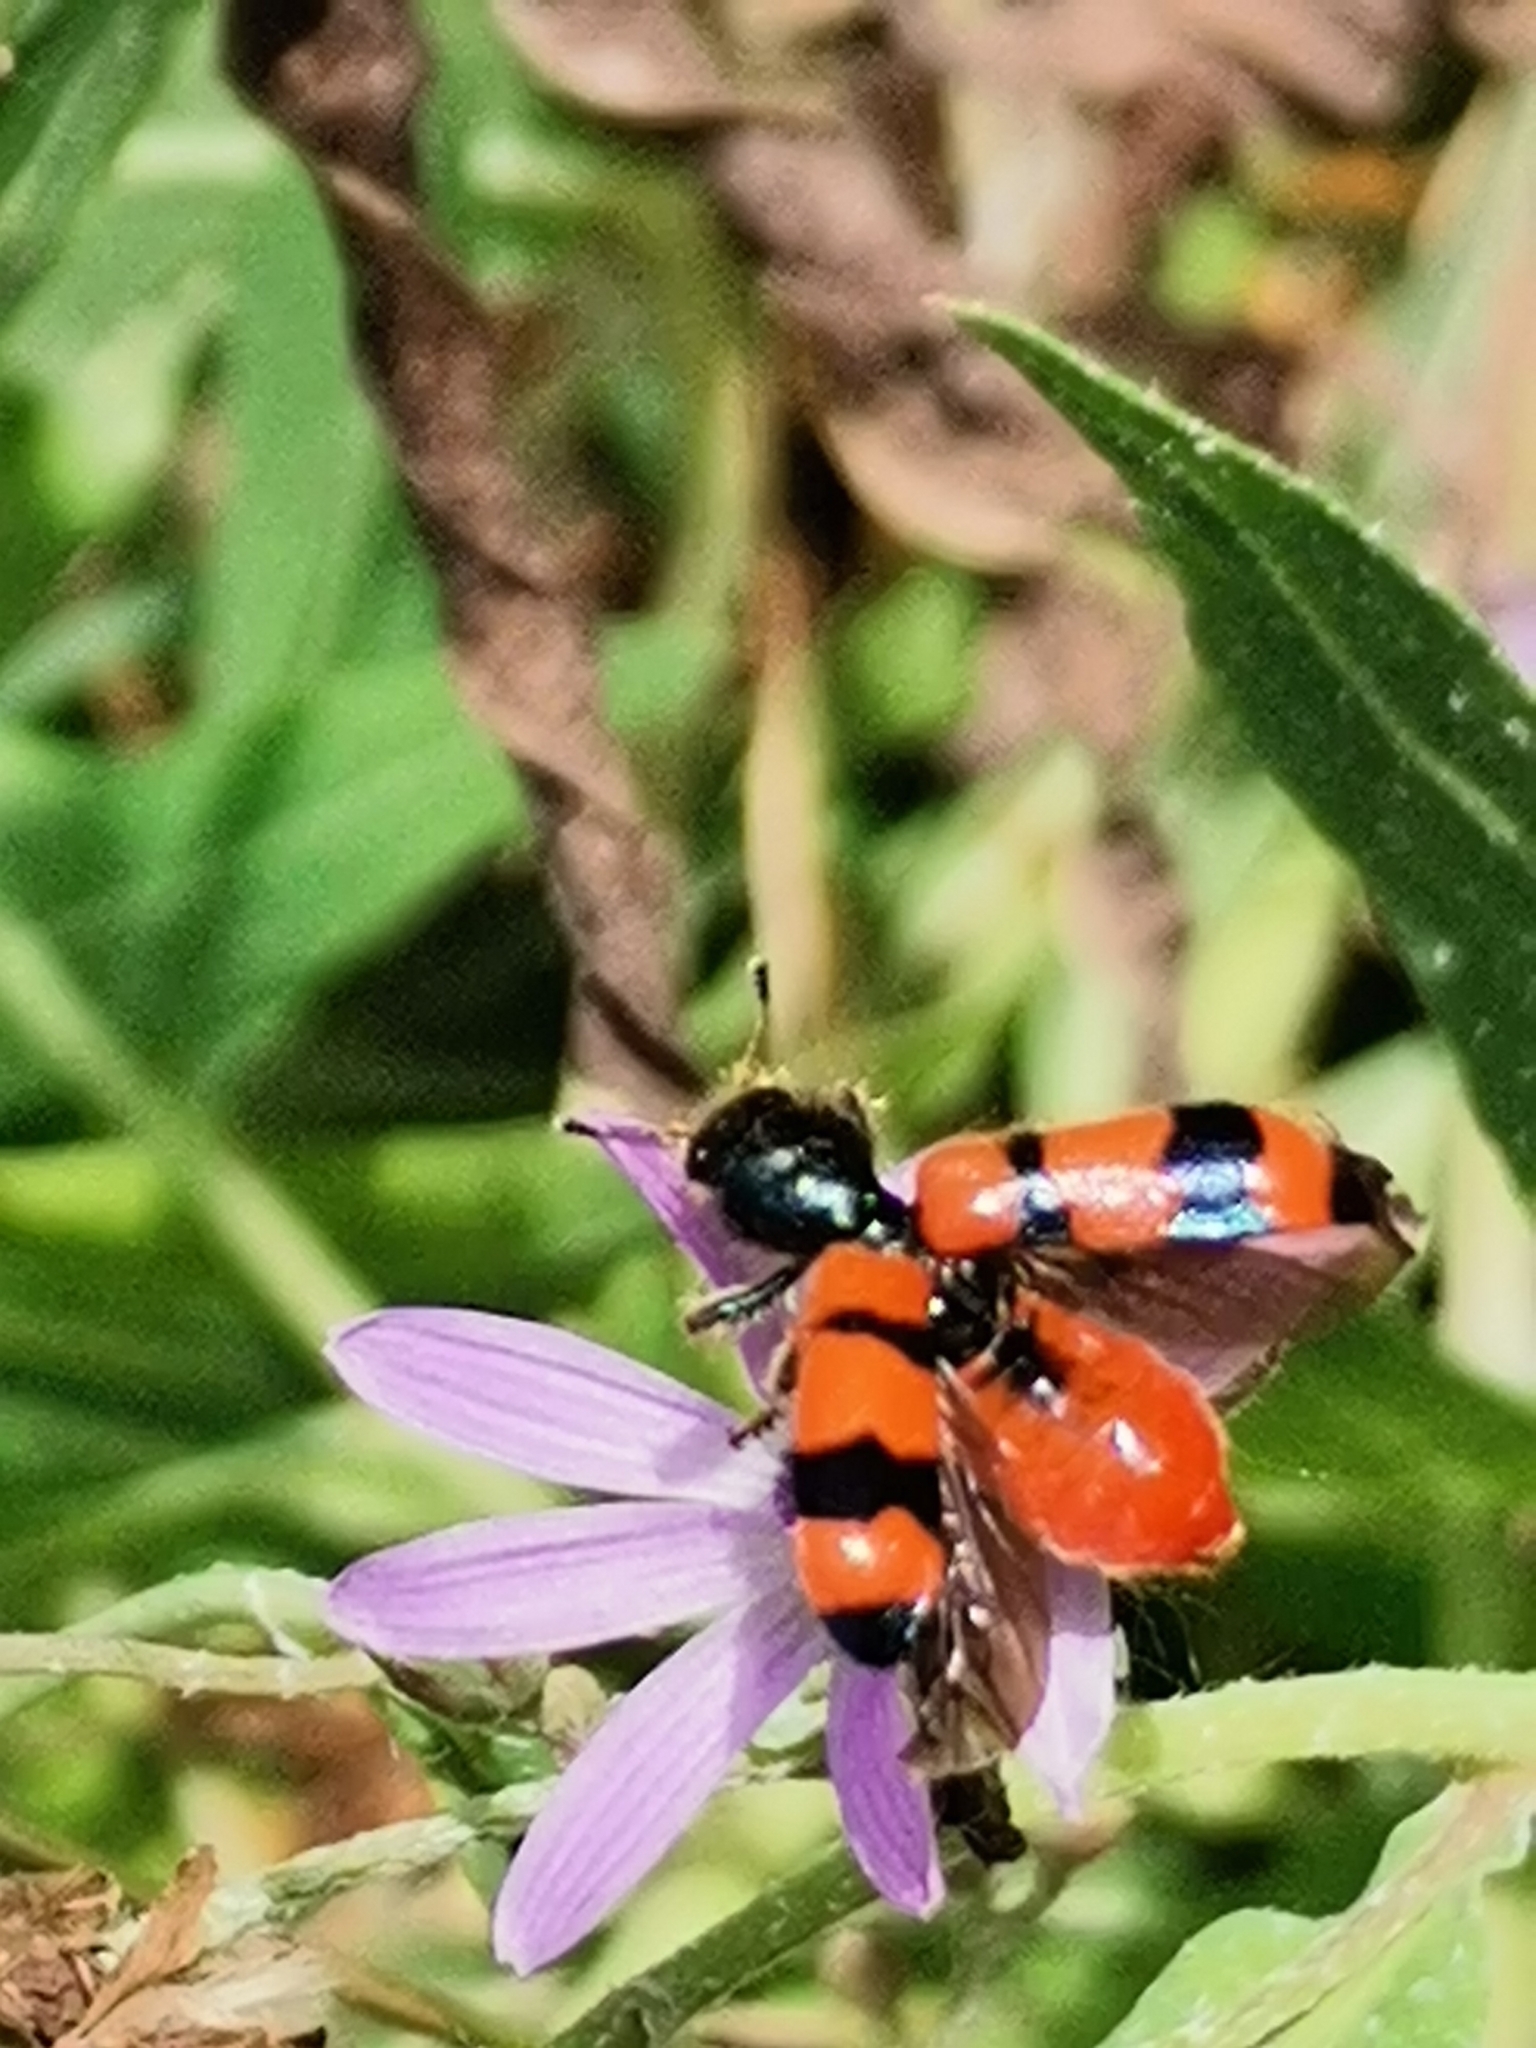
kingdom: Animalia
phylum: Arthropoda
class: Insecta
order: Coleoptera
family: Cleridae
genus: Trichodes
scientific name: Trichodes apiarius
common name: Bee-eating beetle
